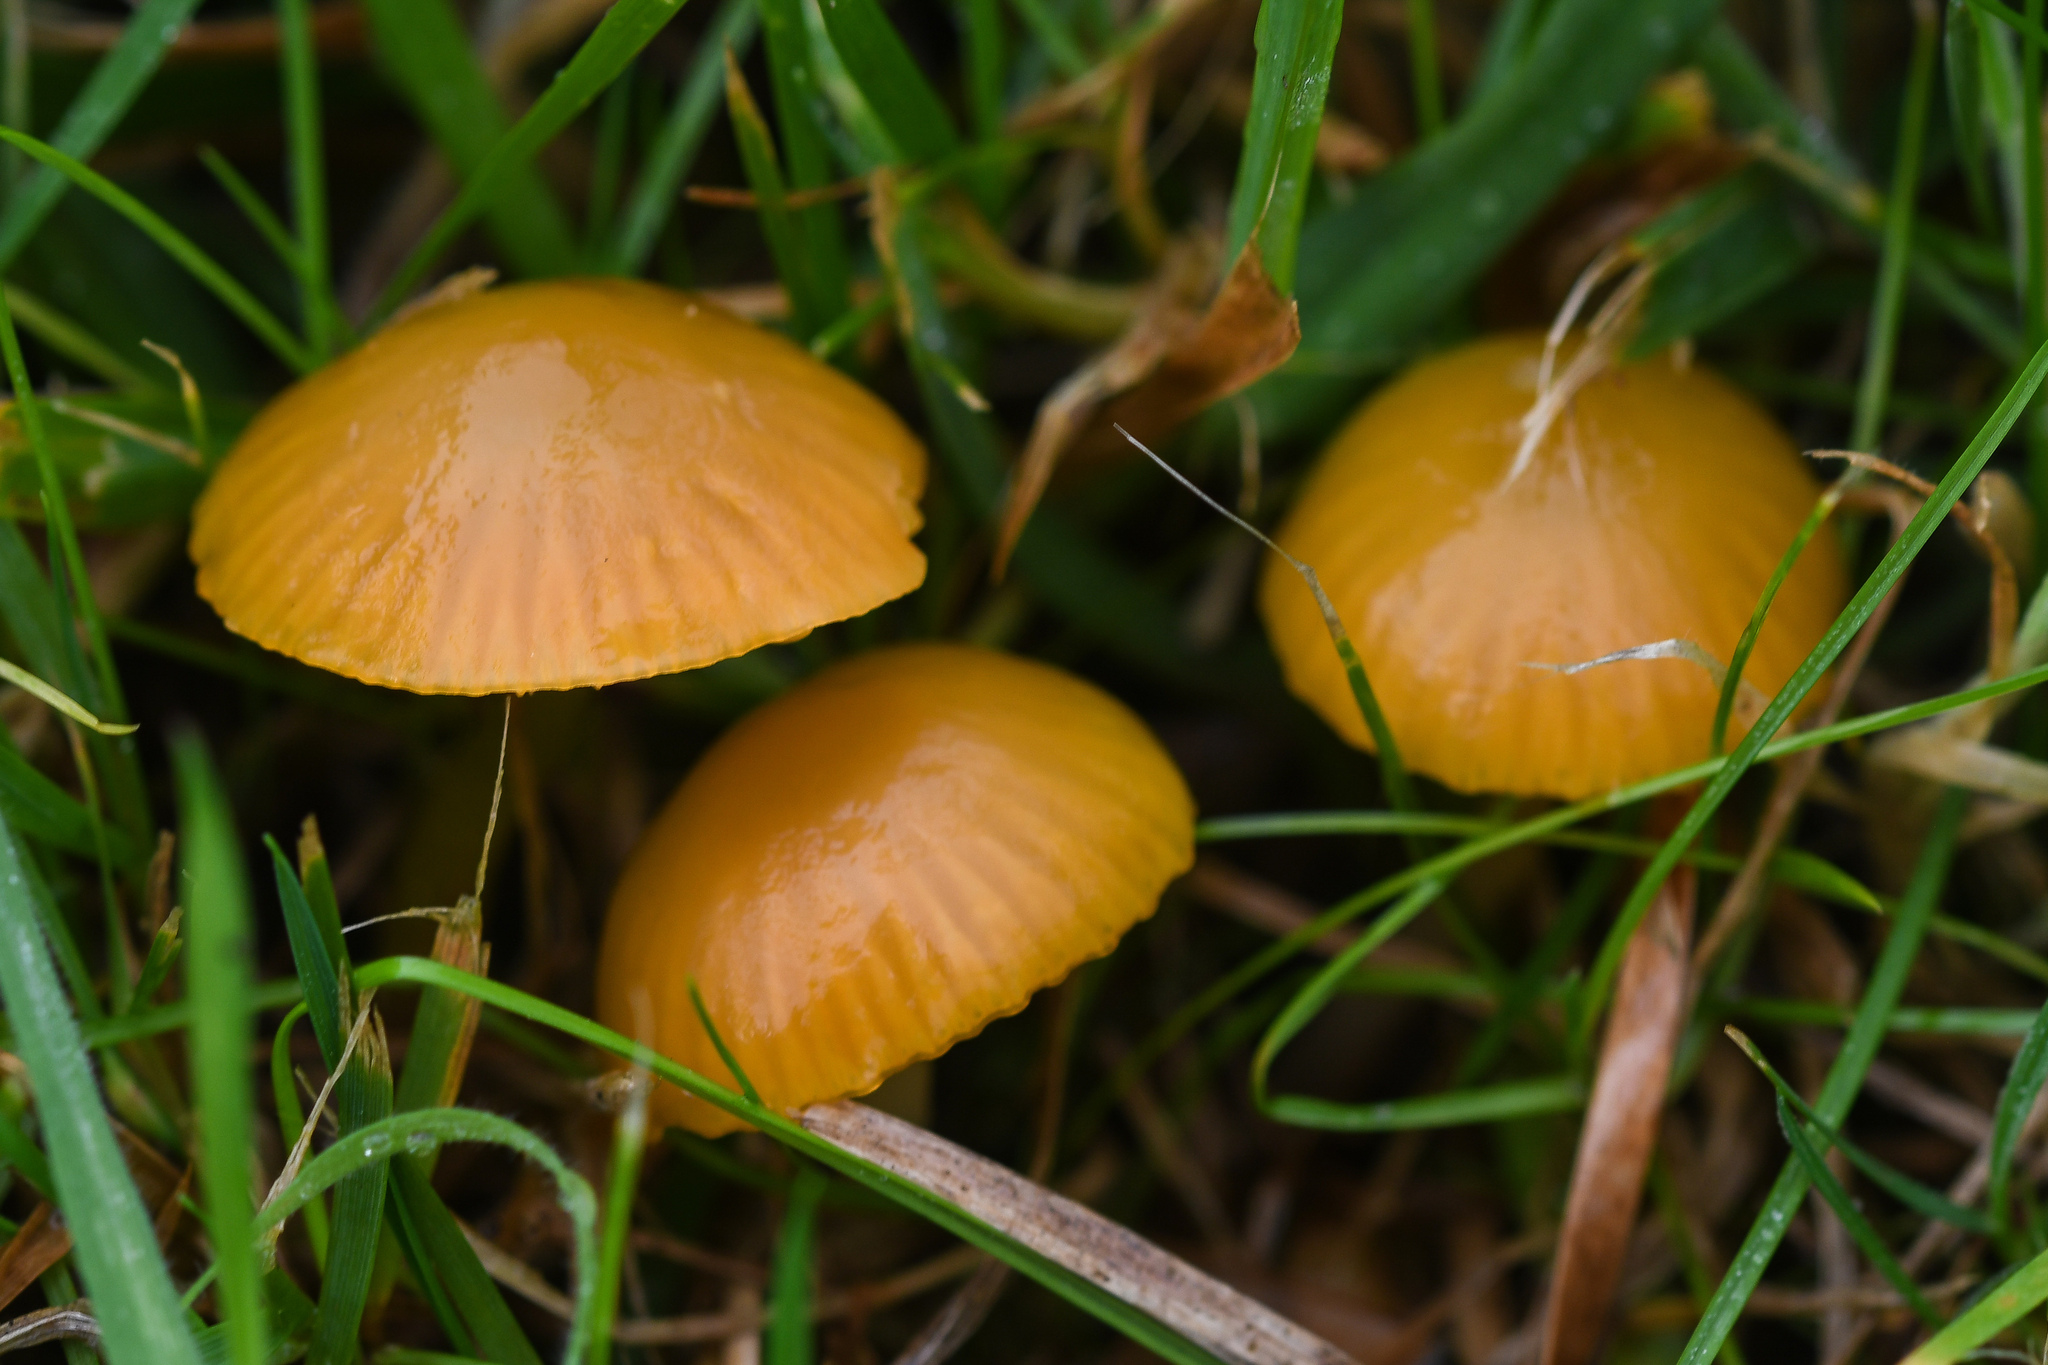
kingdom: Fungi
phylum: Basidiomycota
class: Agaricomycetes
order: Agaricales
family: Hygrophoraceae
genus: Gliophorus
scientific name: Gliophorus psittacinus
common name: Parrot wax-cap
